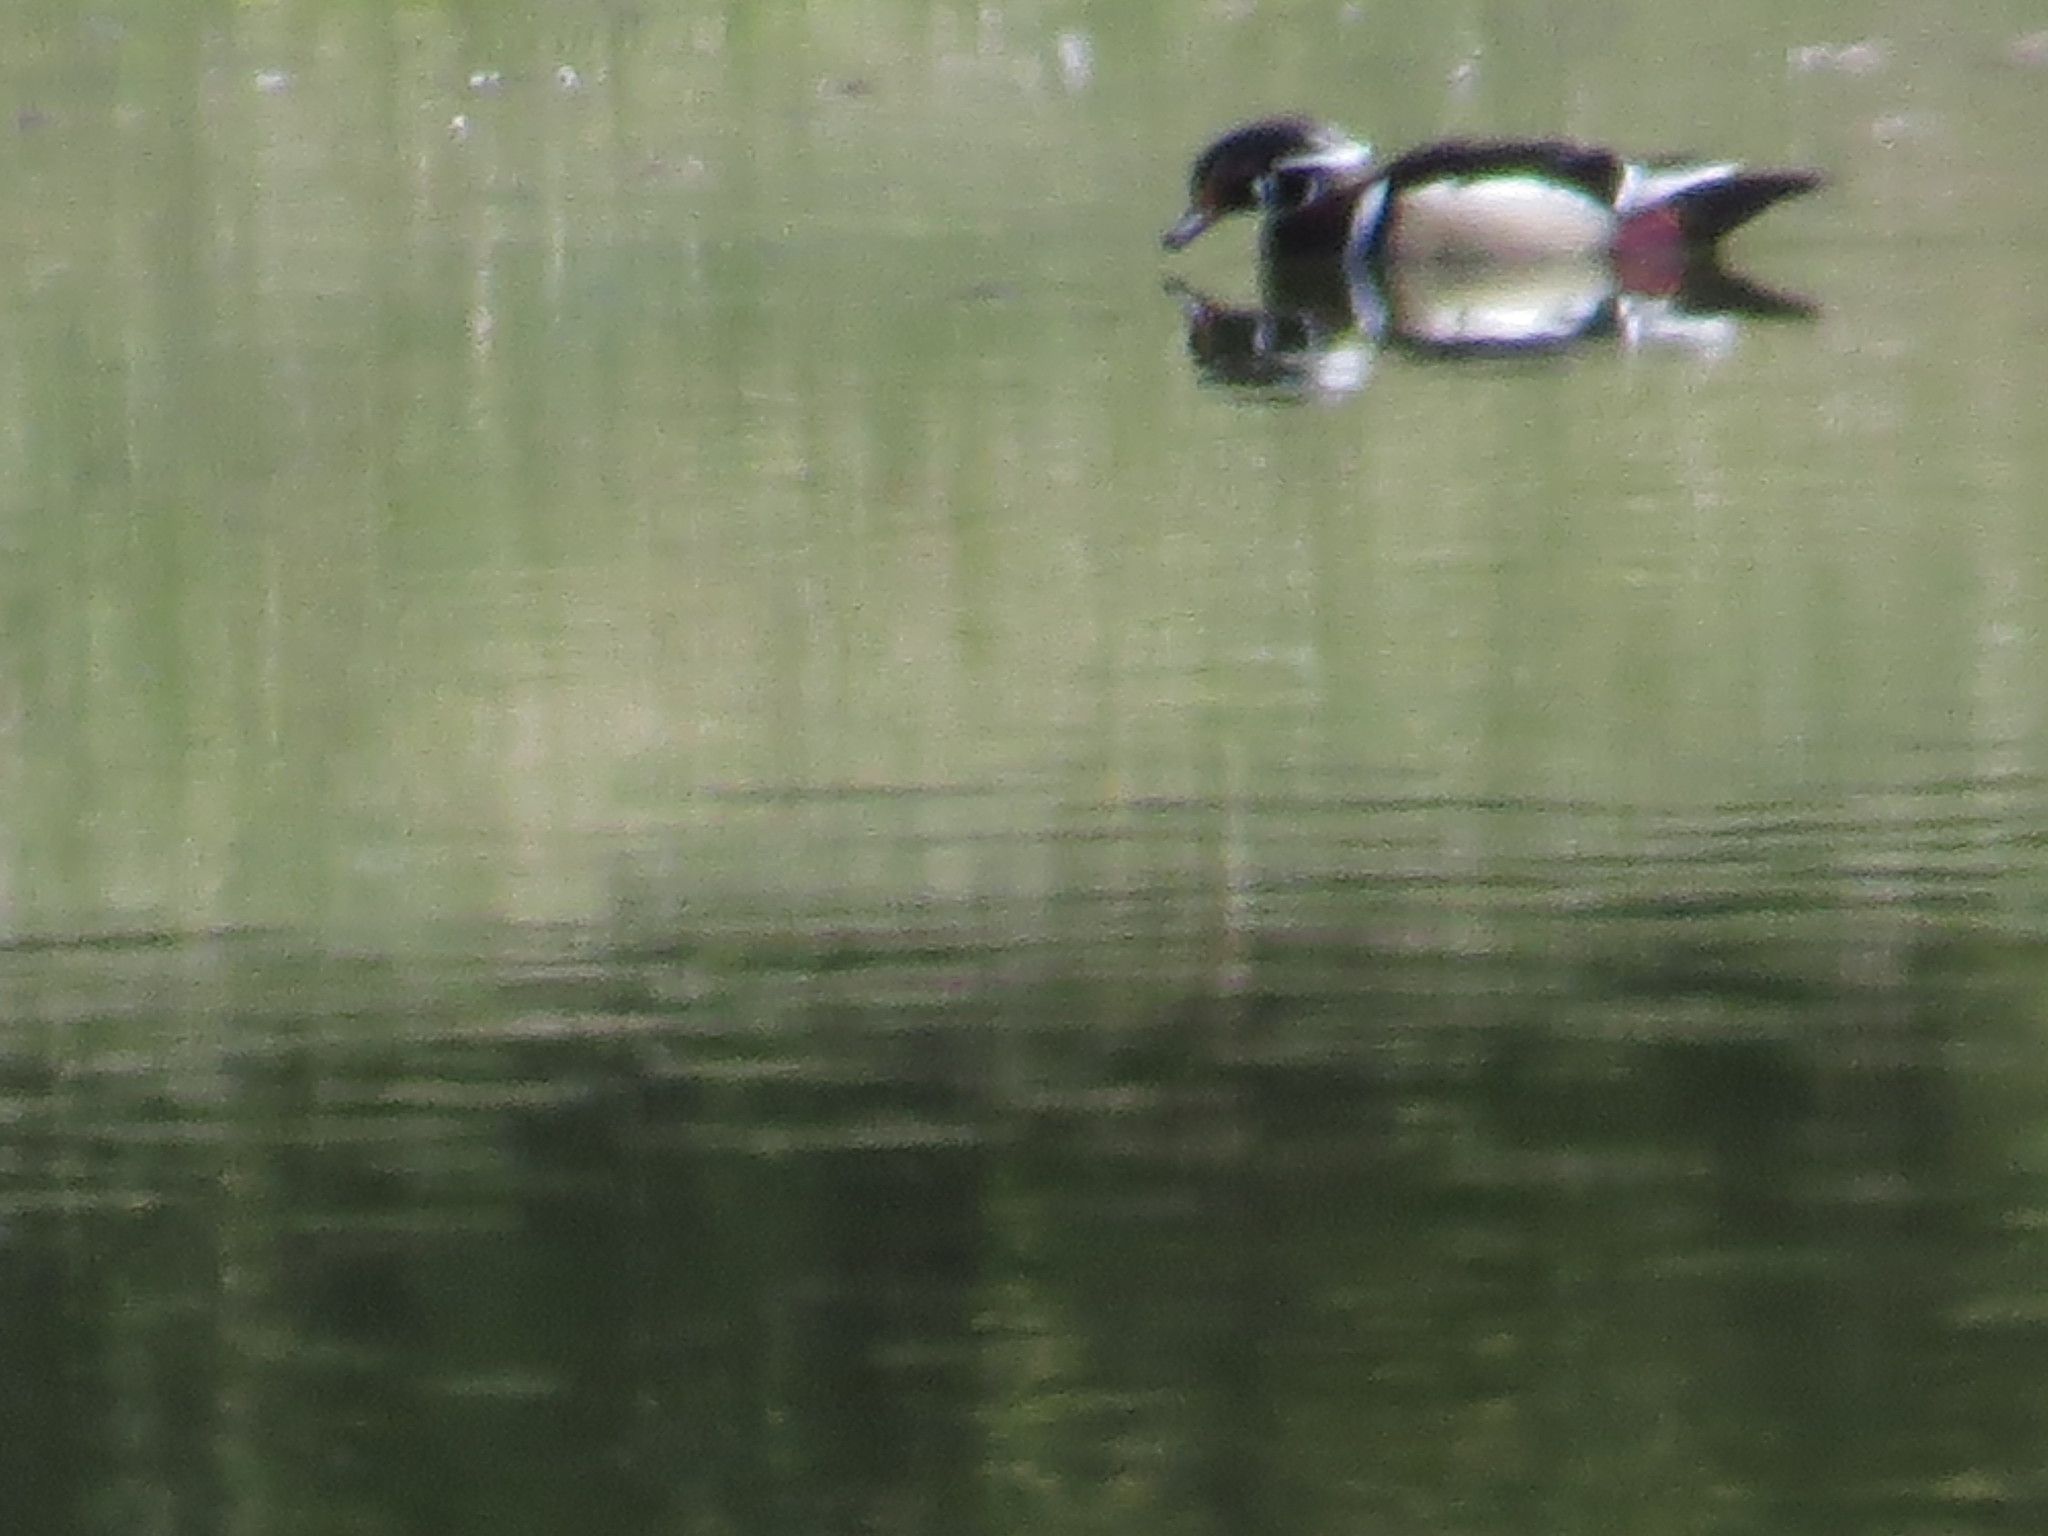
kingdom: Animalia
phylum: Chordata
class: Aves
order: Anseriformes
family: Anatidae
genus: Aix
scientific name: Aix sponsa
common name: Wood duck
